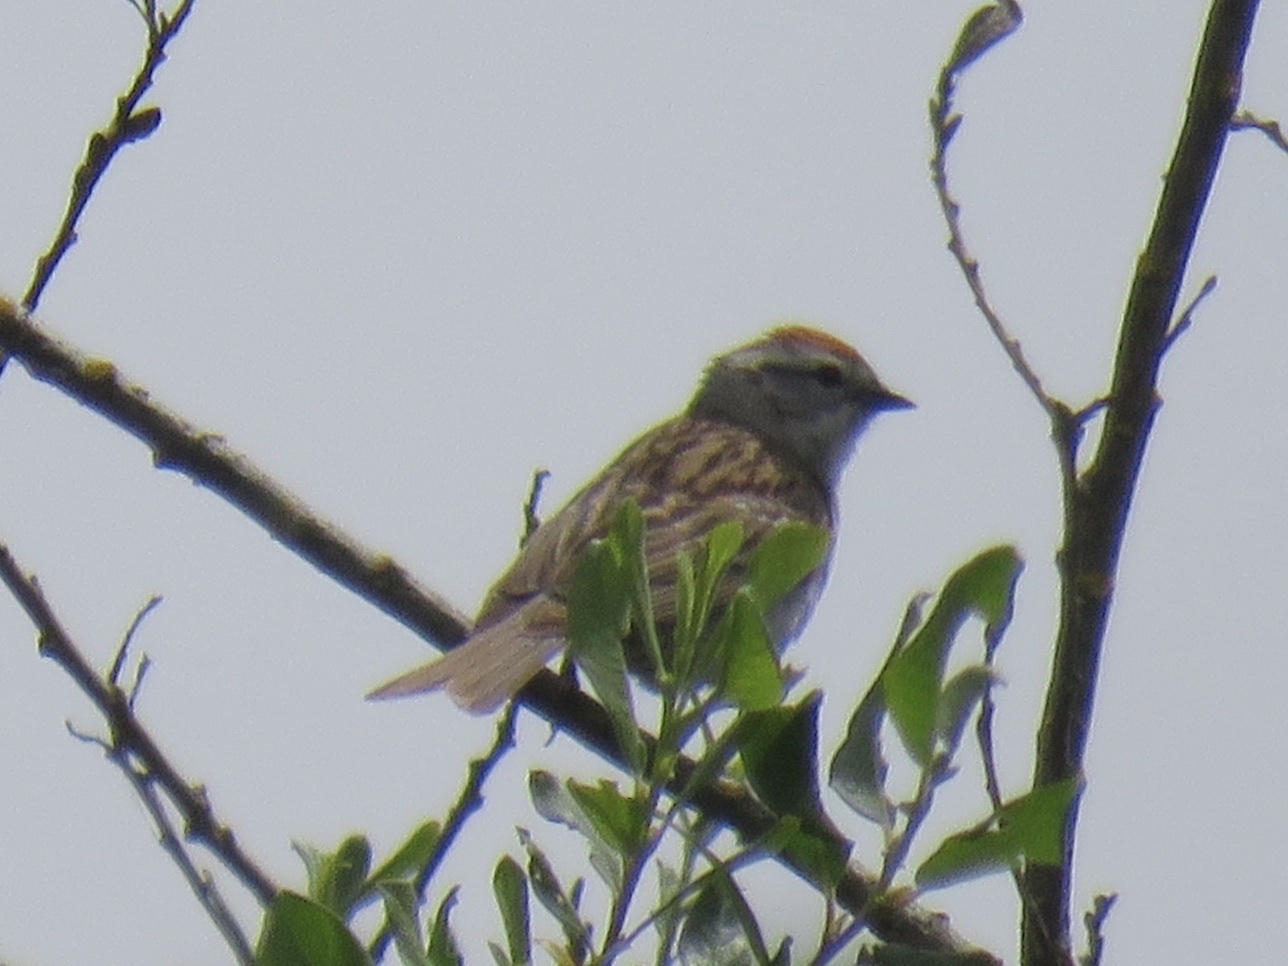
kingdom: Animalia
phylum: Chordata
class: Aves
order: Passeriformes
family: Passerellidae
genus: Spizella
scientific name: Spizella passerina
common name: Chipping sparrow
